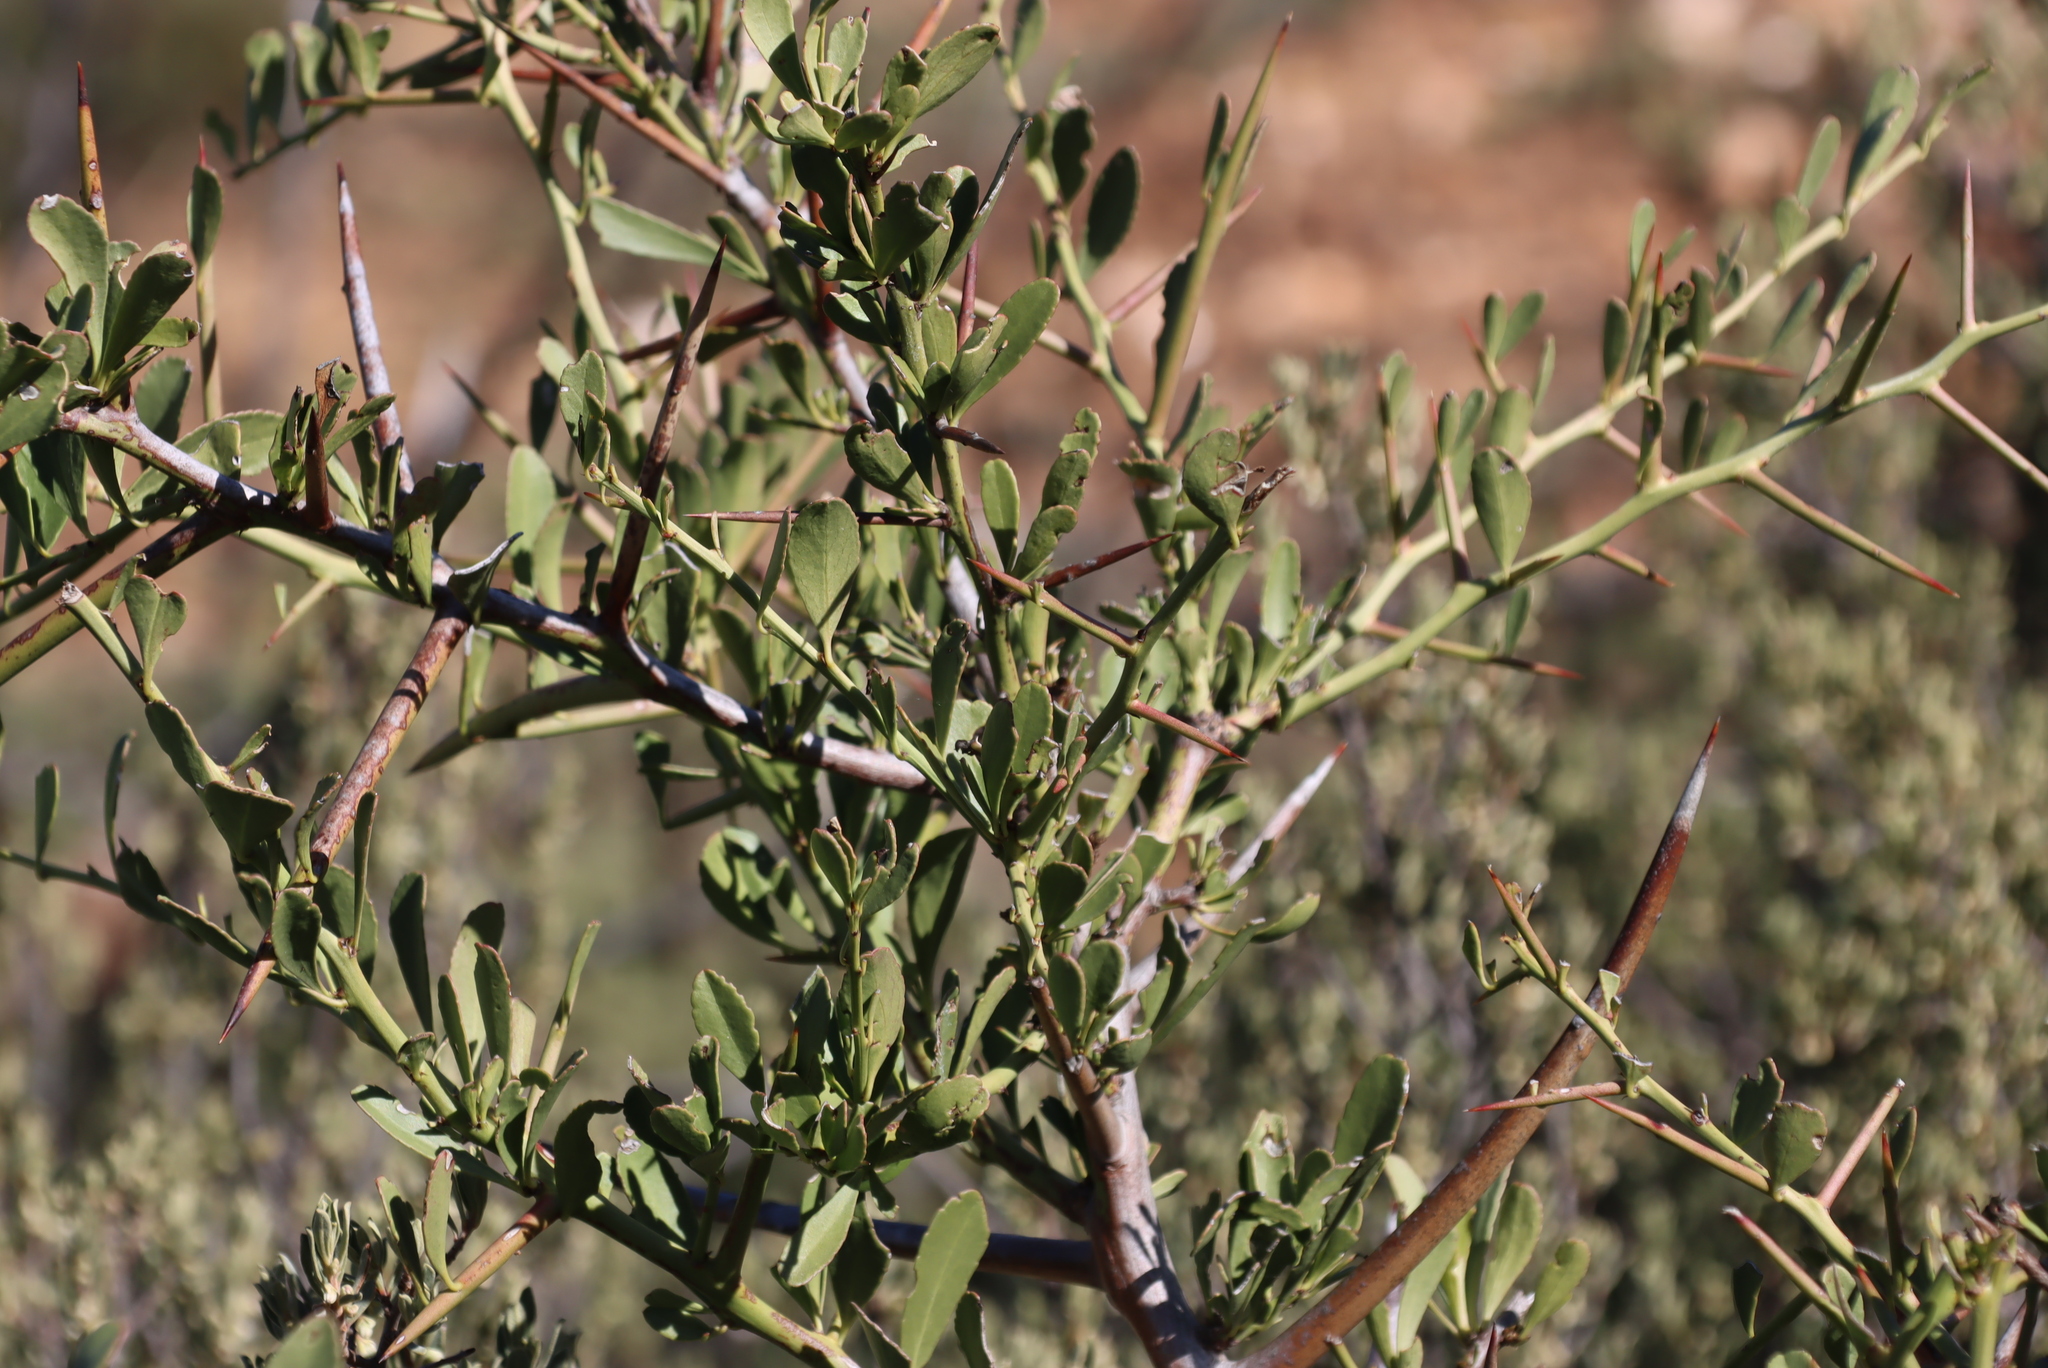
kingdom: Plantae
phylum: Tracheophyta
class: Magnoliopsida
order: Celastrales
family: Celastraceae
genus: Gymnosporia
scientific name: Gymnosporia buxifolia
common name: Common spike-thorn
